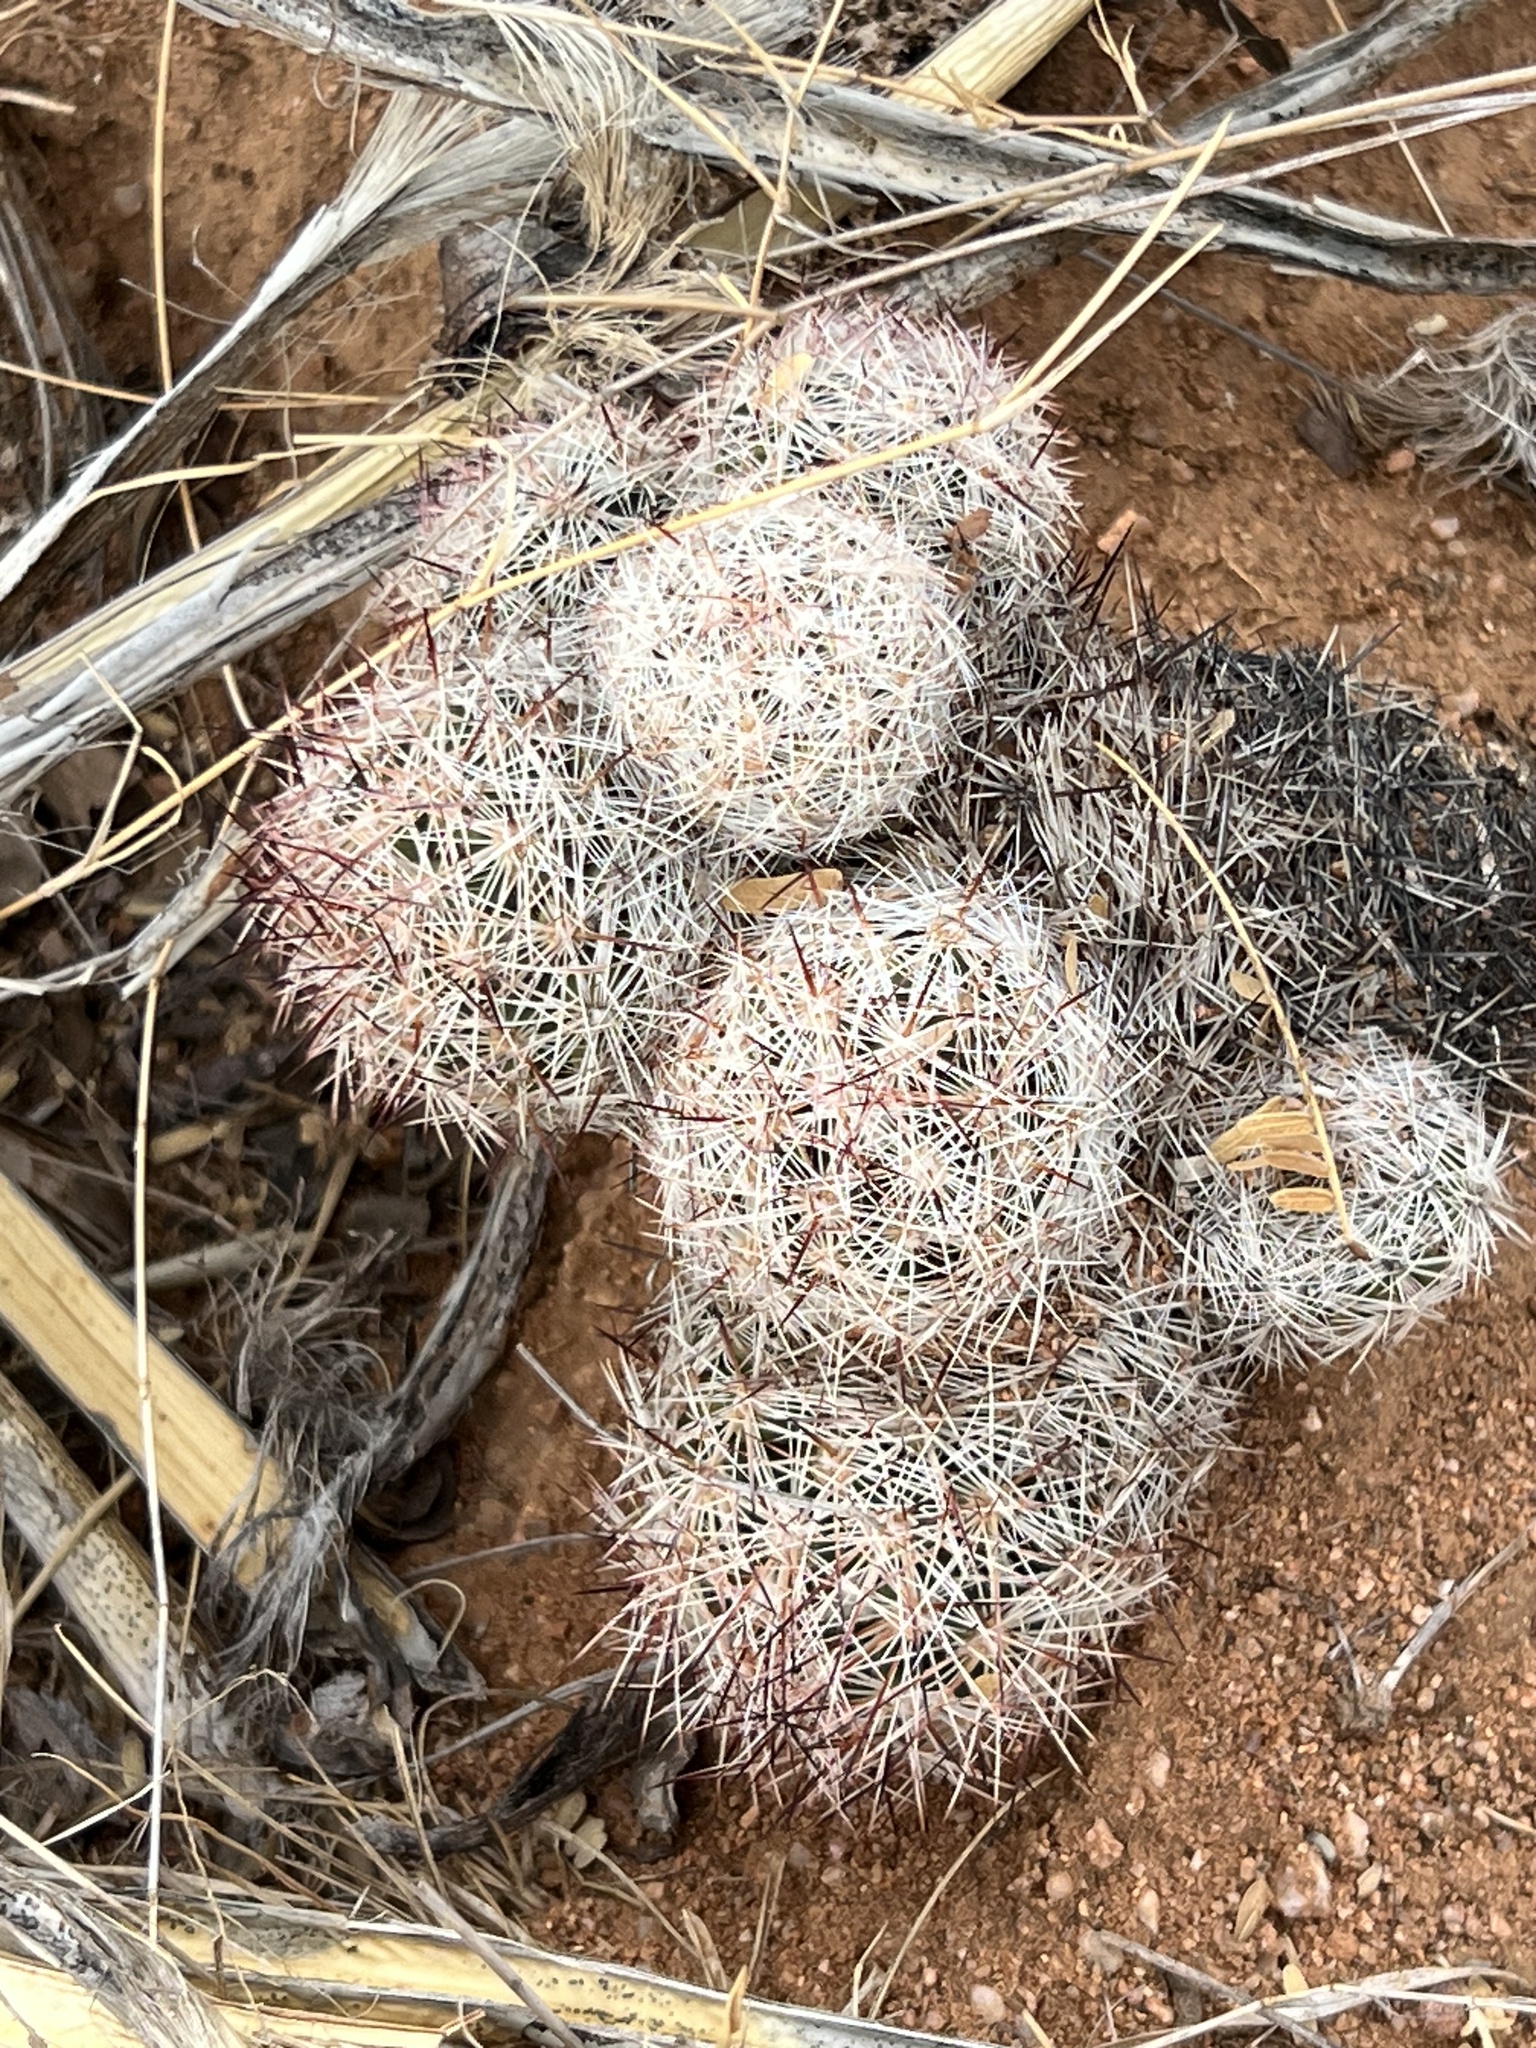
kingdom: Plantae
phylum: Tracheophyta
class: Magnoliopsida
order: Caryophyllales
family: Cactaceae
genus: Pelecyphora
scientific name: Pelecyphora vivipara
